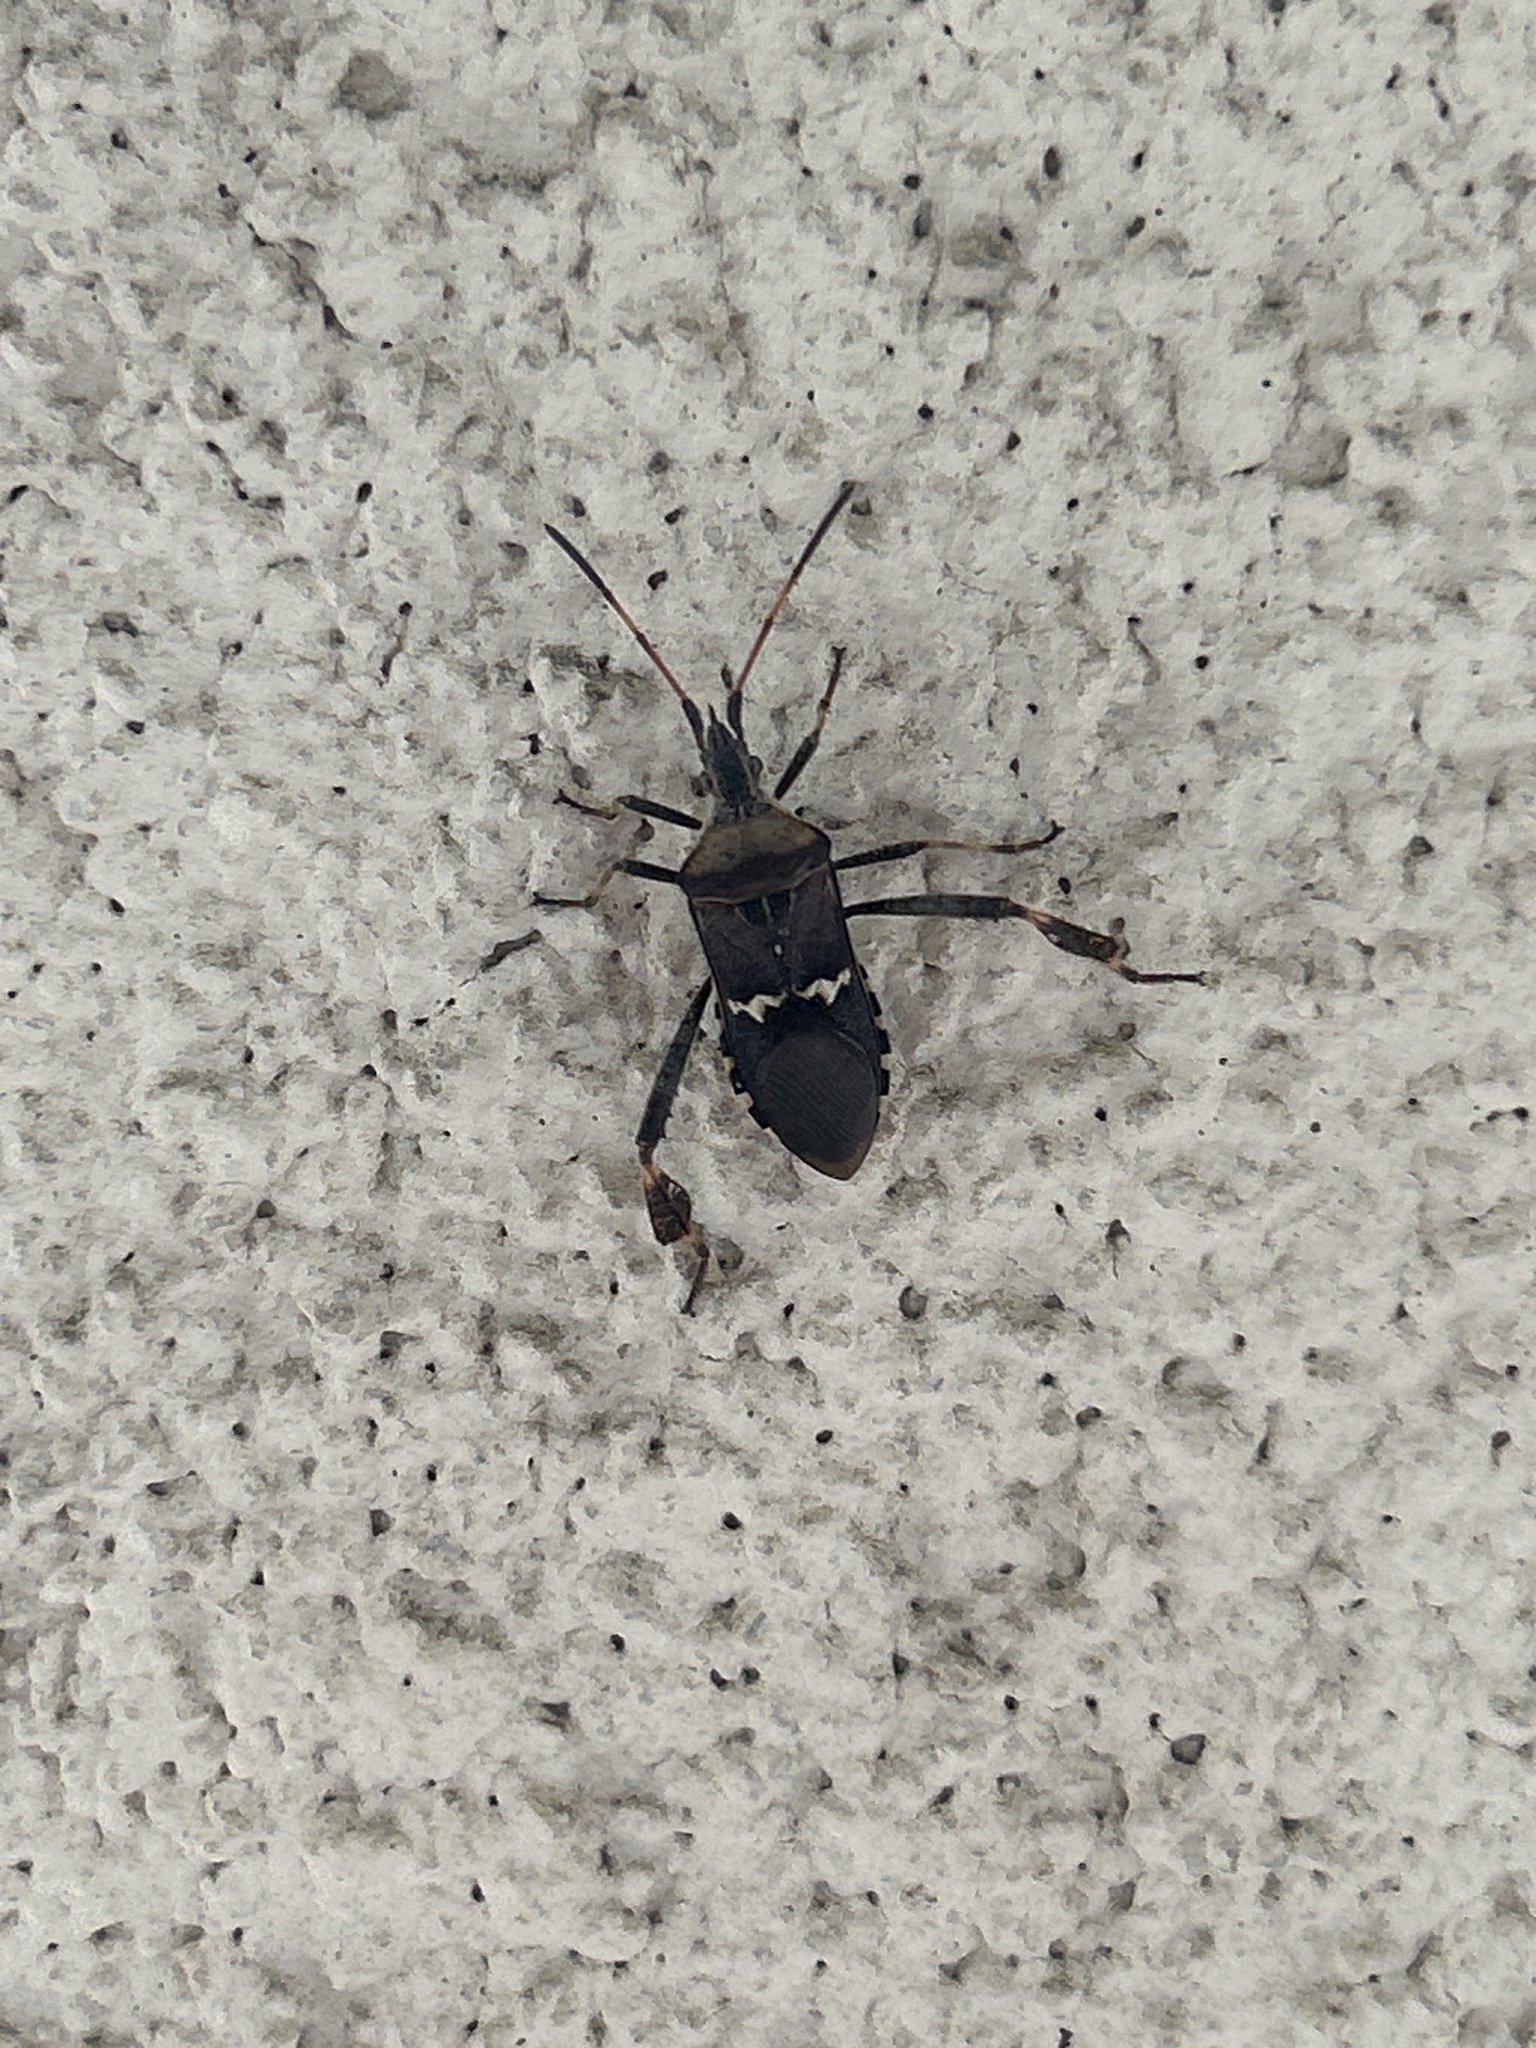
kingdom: Animalia
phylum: Arthropoda
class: Insecta
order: Hemiptera
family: Coreidae
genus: Leptoglossus
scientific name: Leptoglossus clypealis
